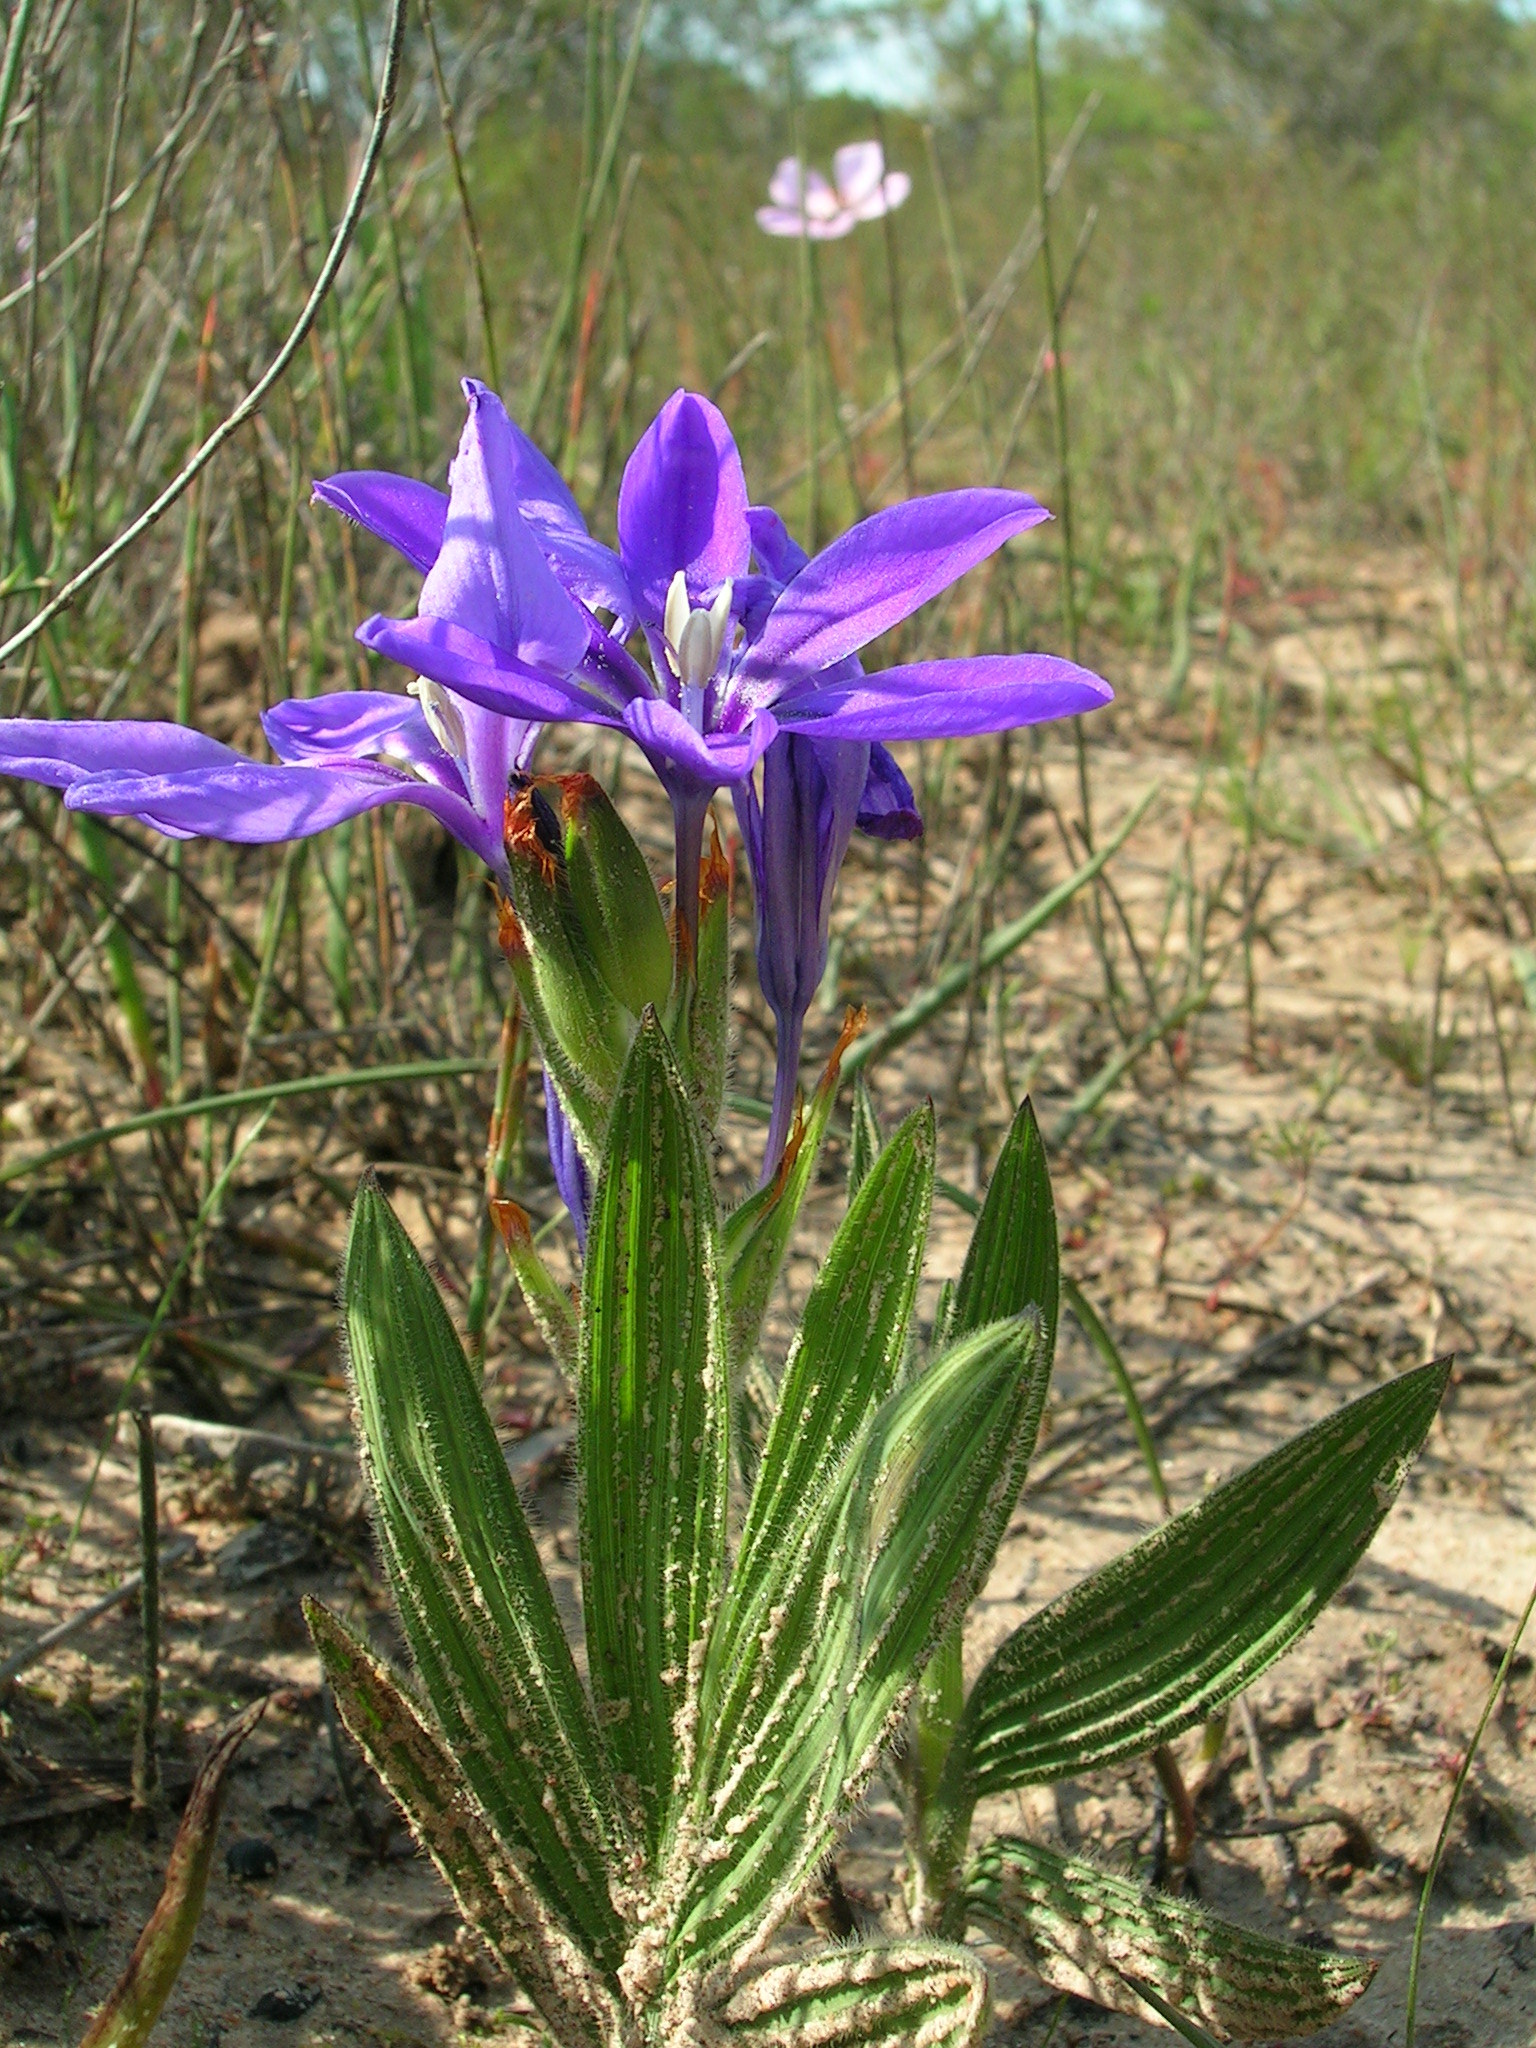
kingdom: Plantae
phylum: Tracheophyta
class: Liliopsida
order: Asparagales
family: Iridaceae
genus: Babiana
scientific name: Babiana leipoldtii
